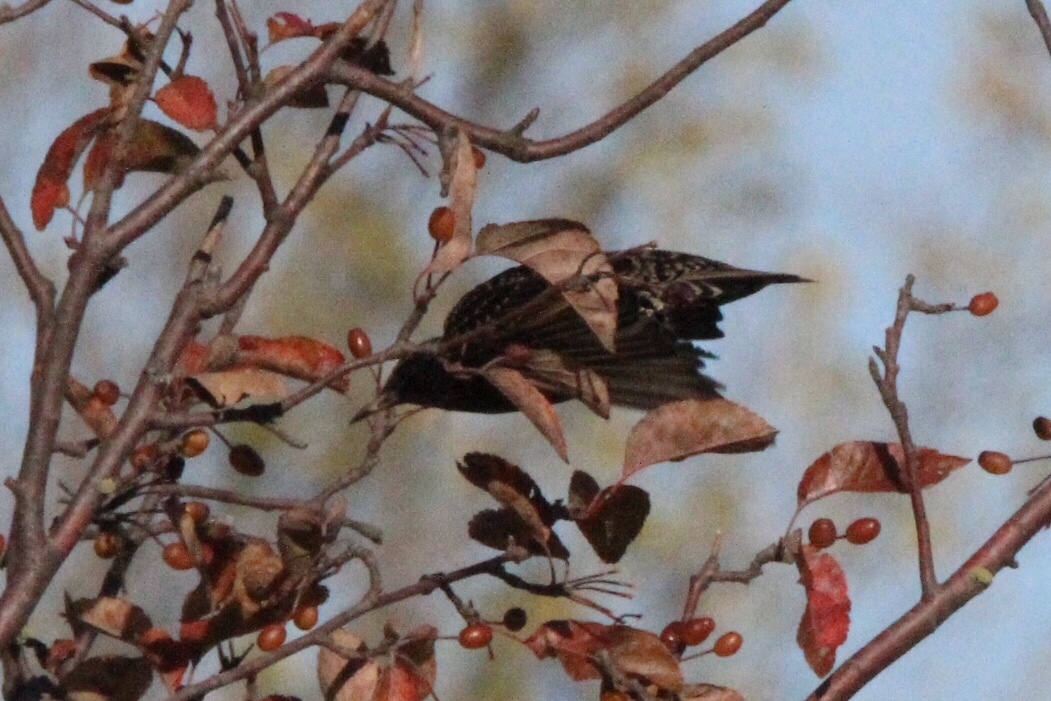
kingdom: Animalia
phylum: Chordata
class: Aves
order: Passeriformes
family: Sturnidae
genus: Sturnus
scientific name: Sturnus vulgaris
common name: Common starling
